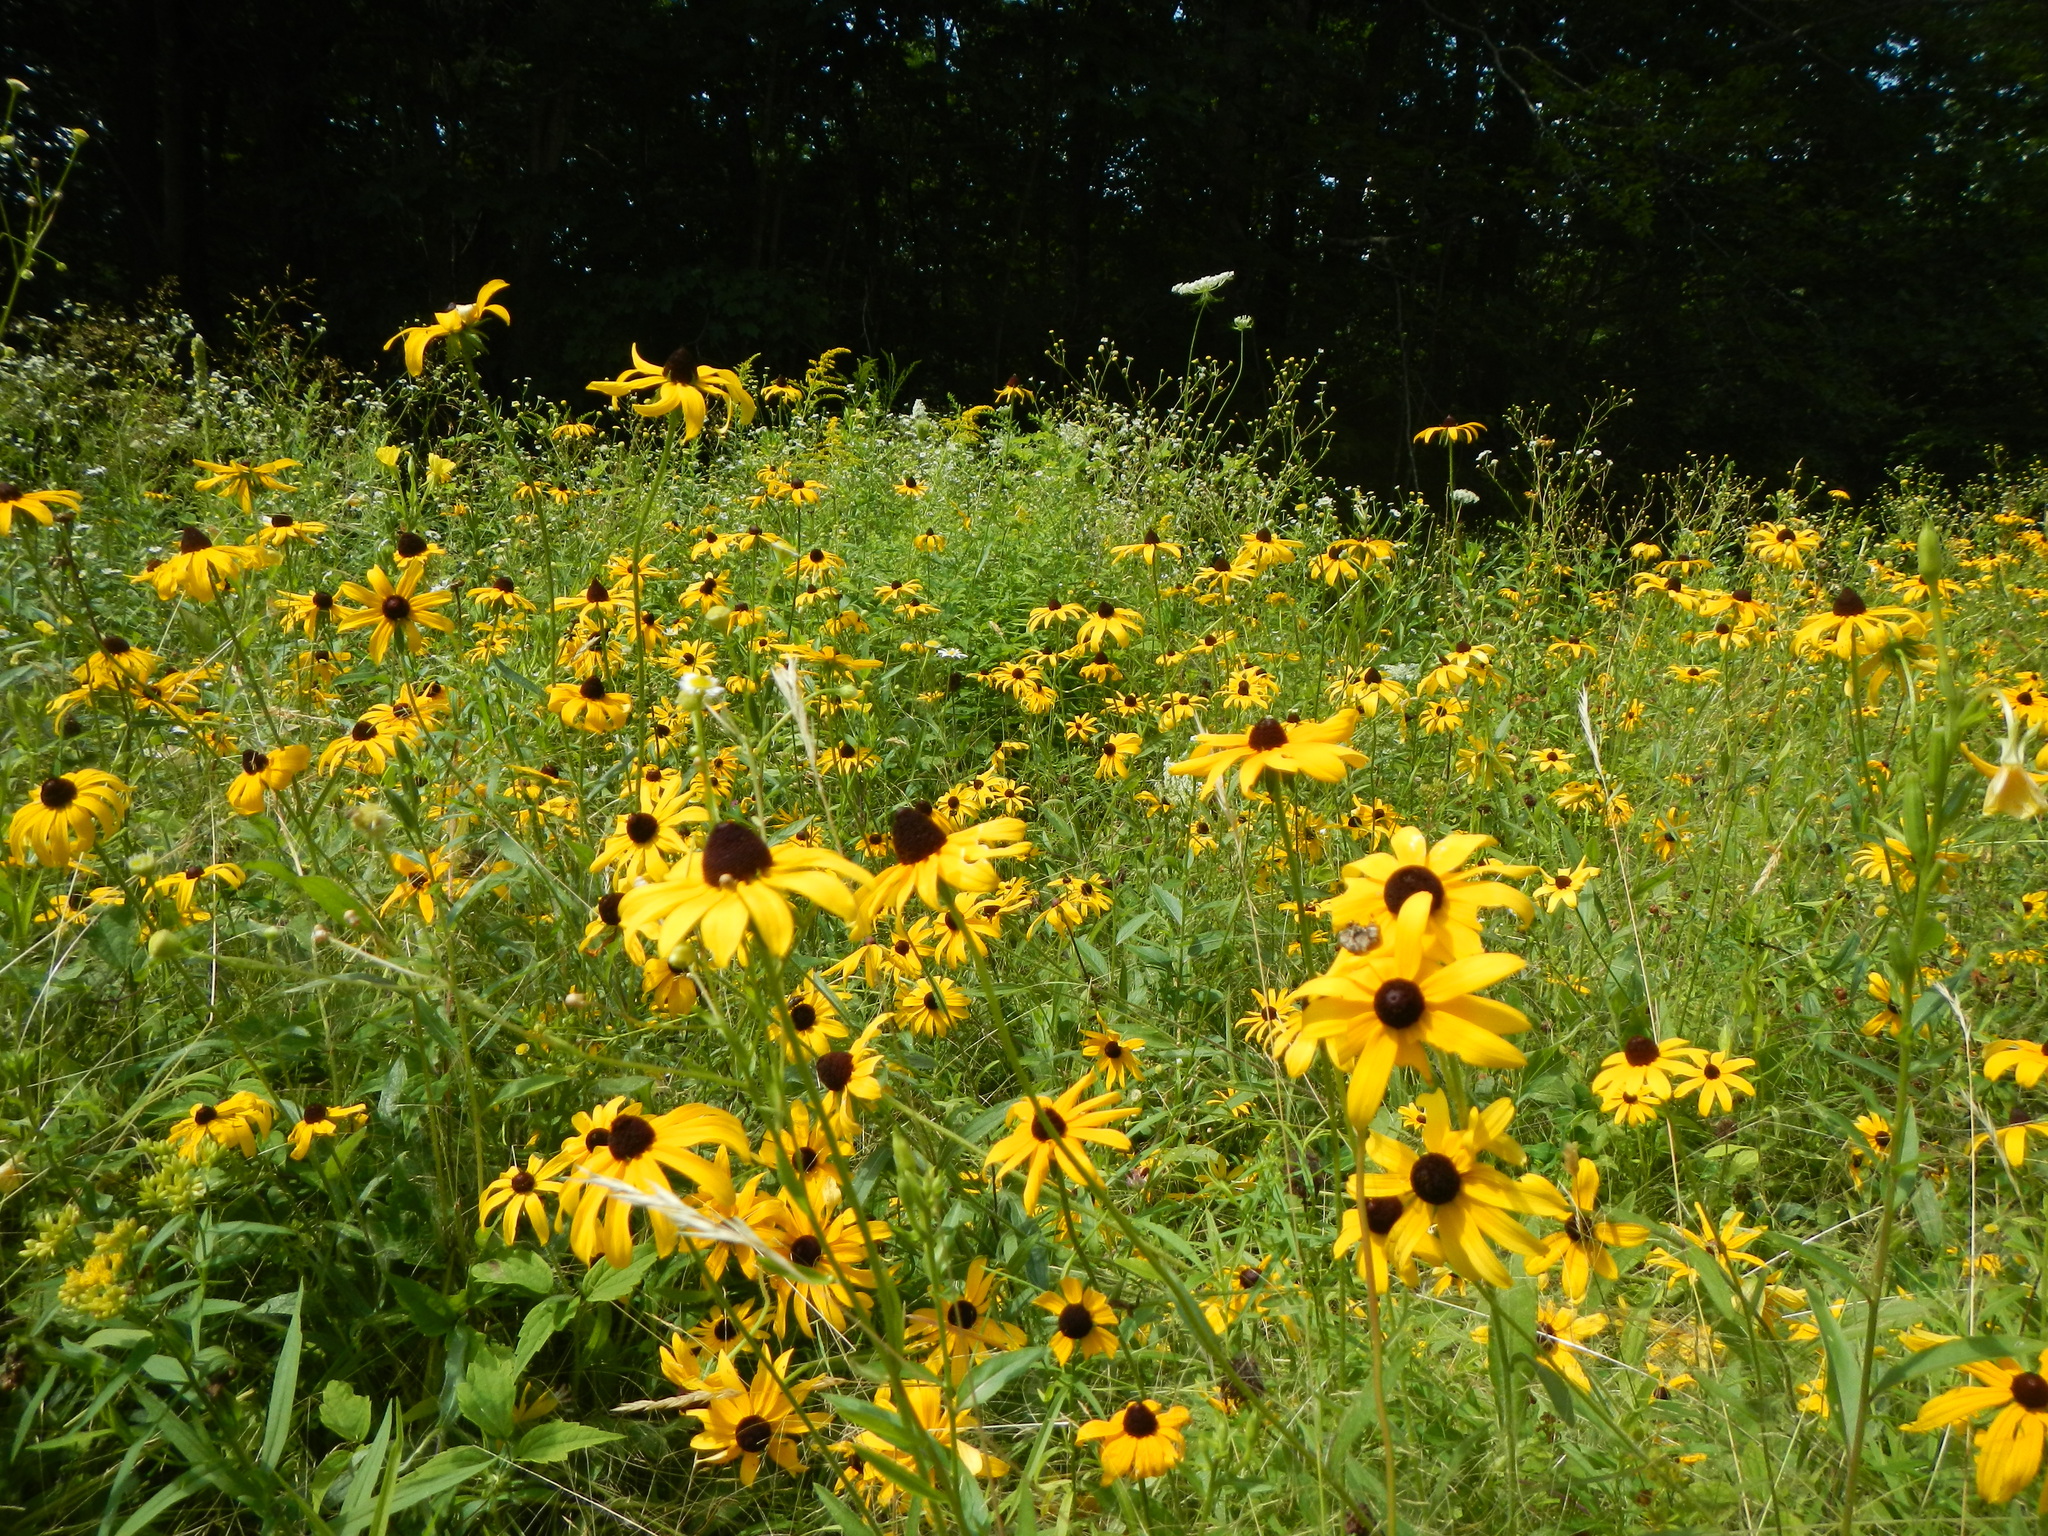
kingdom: Plantae
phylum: Tracheophyta
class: Magnoliopsida
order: Asterales
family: Asteraceae
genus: Rudbeckia
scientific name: Rudbeckia hirta
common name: Black-eyed-susan
